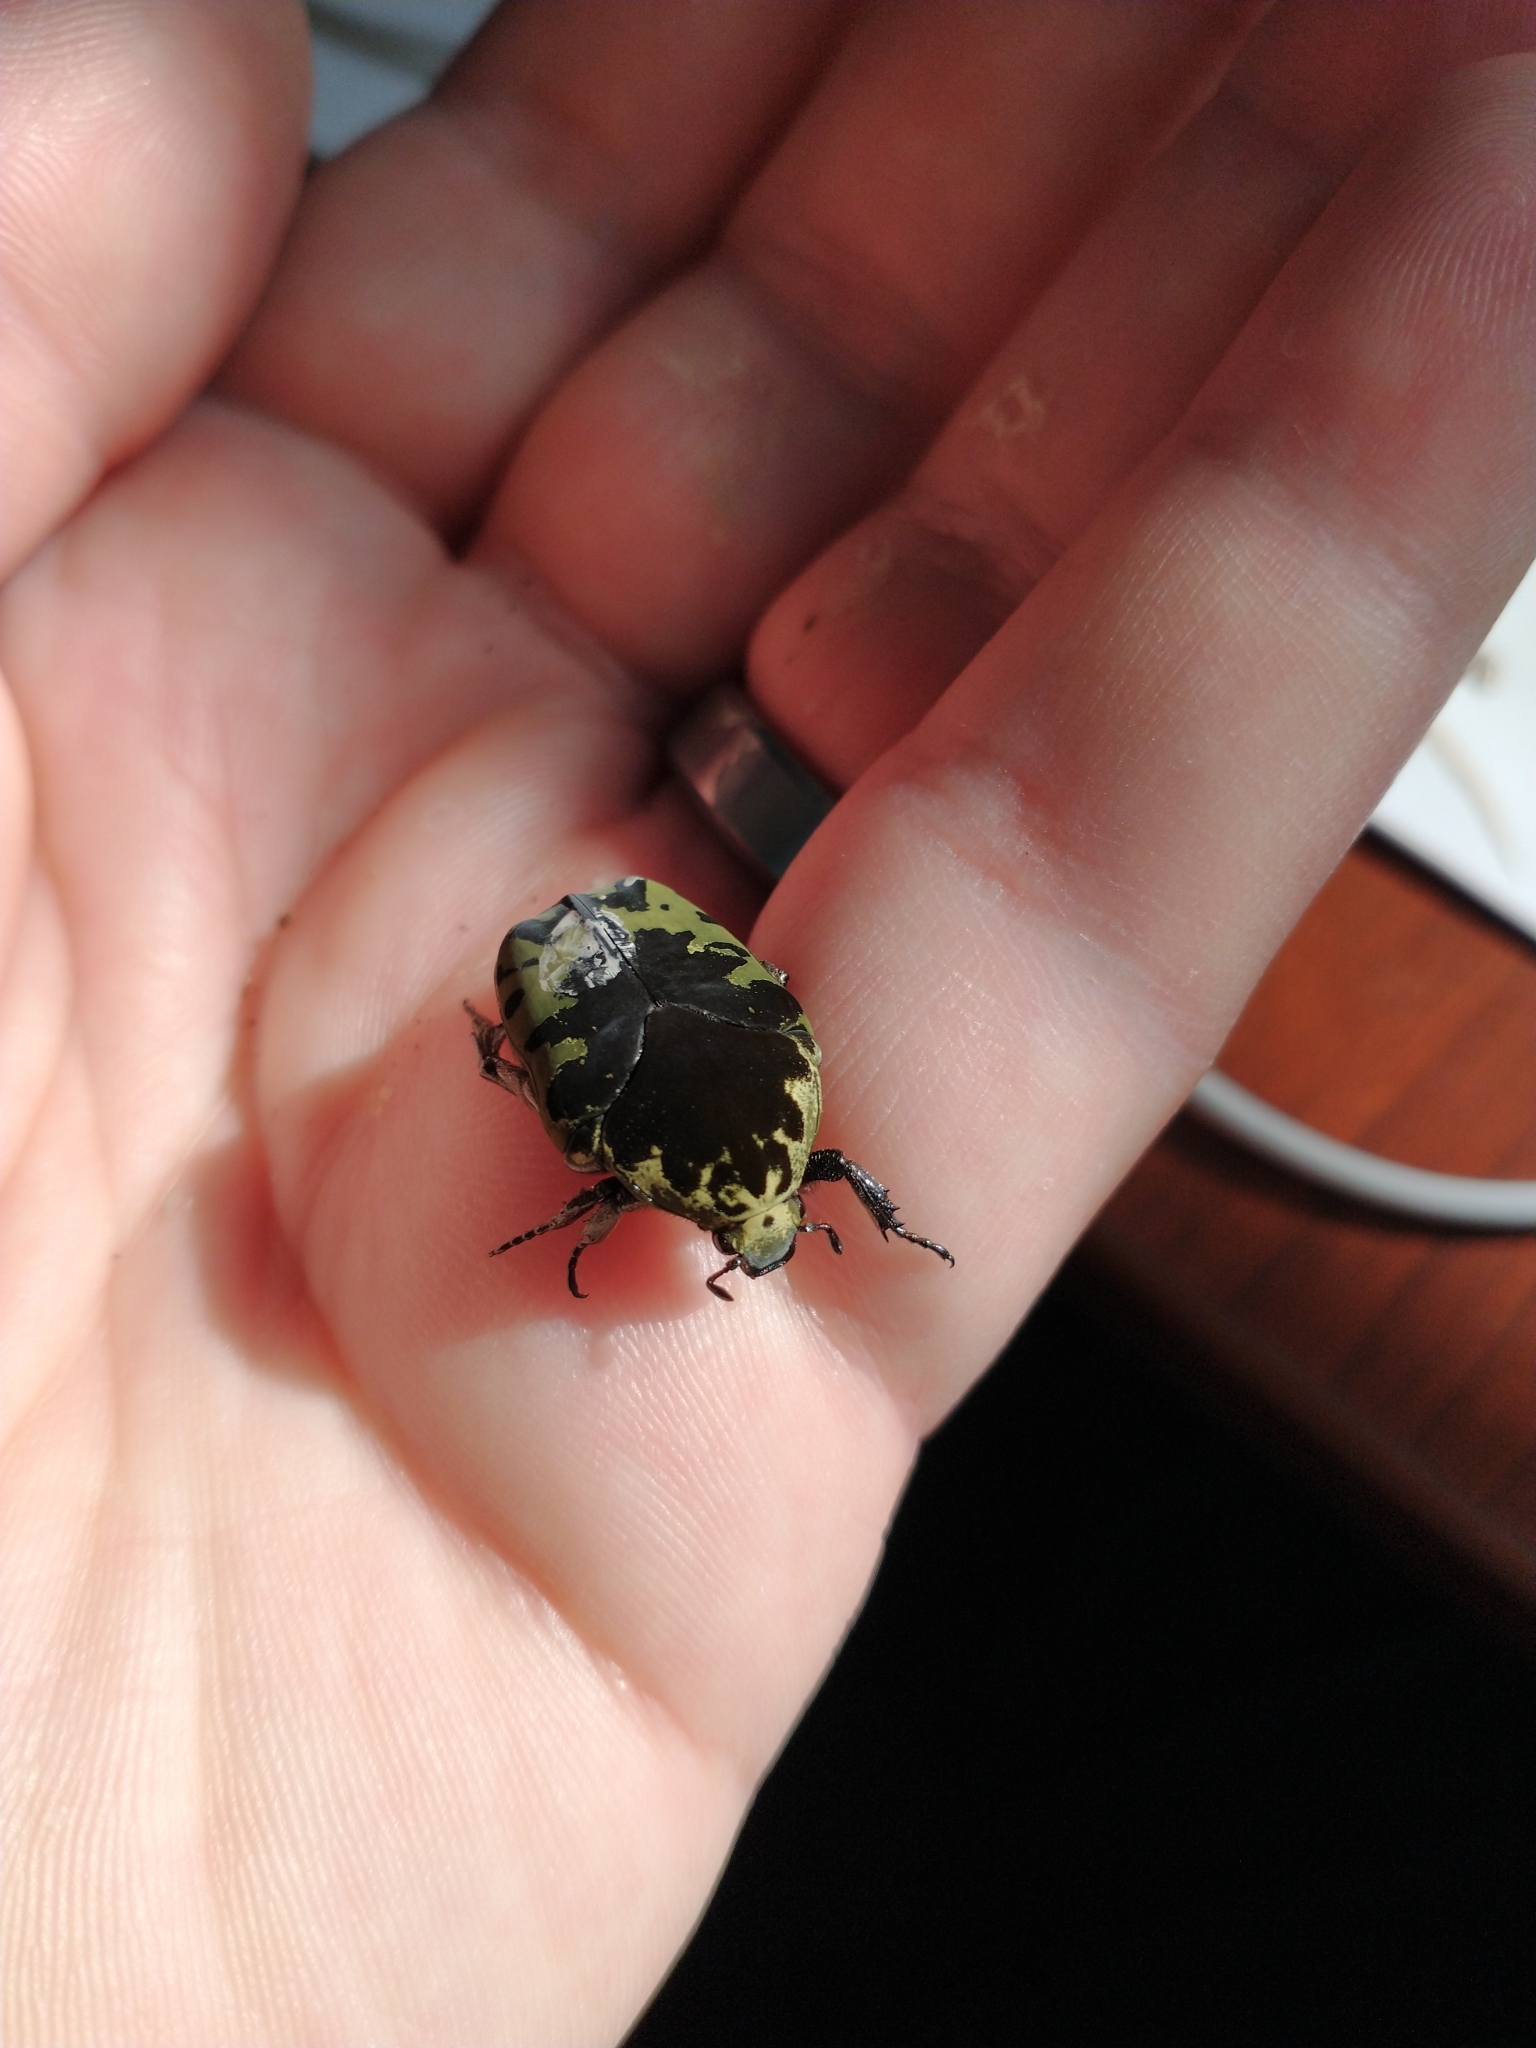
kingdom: Animalia
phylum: Arthropoda
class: Insecta
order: Coleoptera
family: Scarabaeidae
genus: Gymnetis
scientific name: Gymnetis thula
